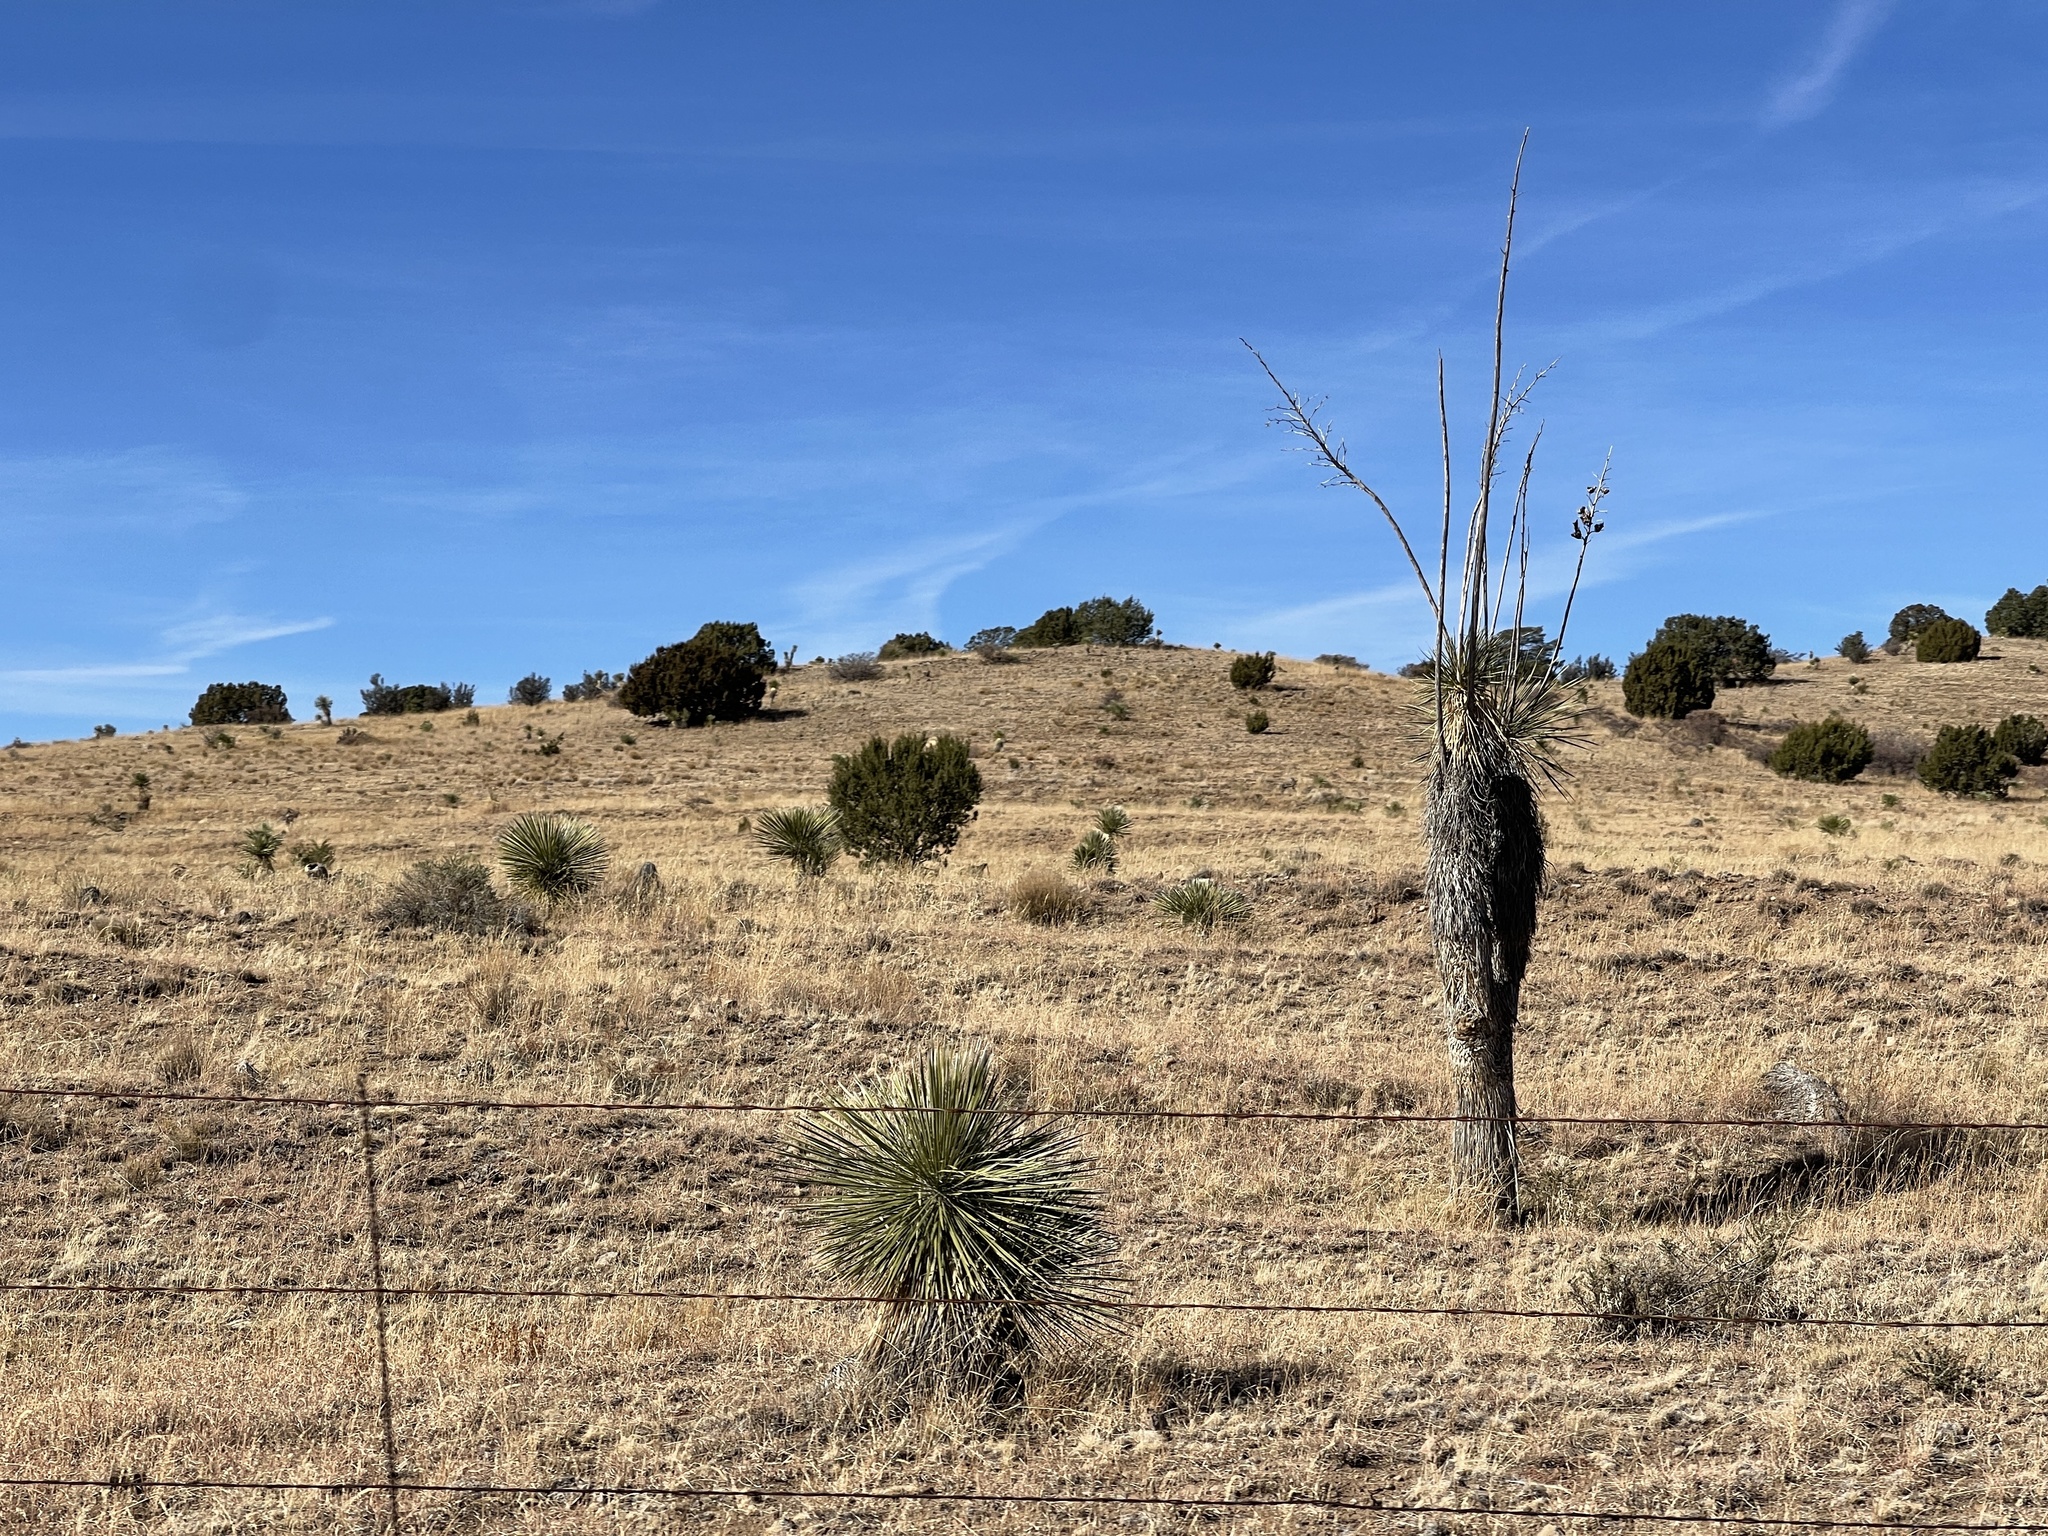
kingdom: Plantae
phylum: Tracheophyta
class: Liliopsida
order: Asparagales
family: Asparagaceae
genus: Yucca
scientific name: Yucca elata
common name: Palmella
